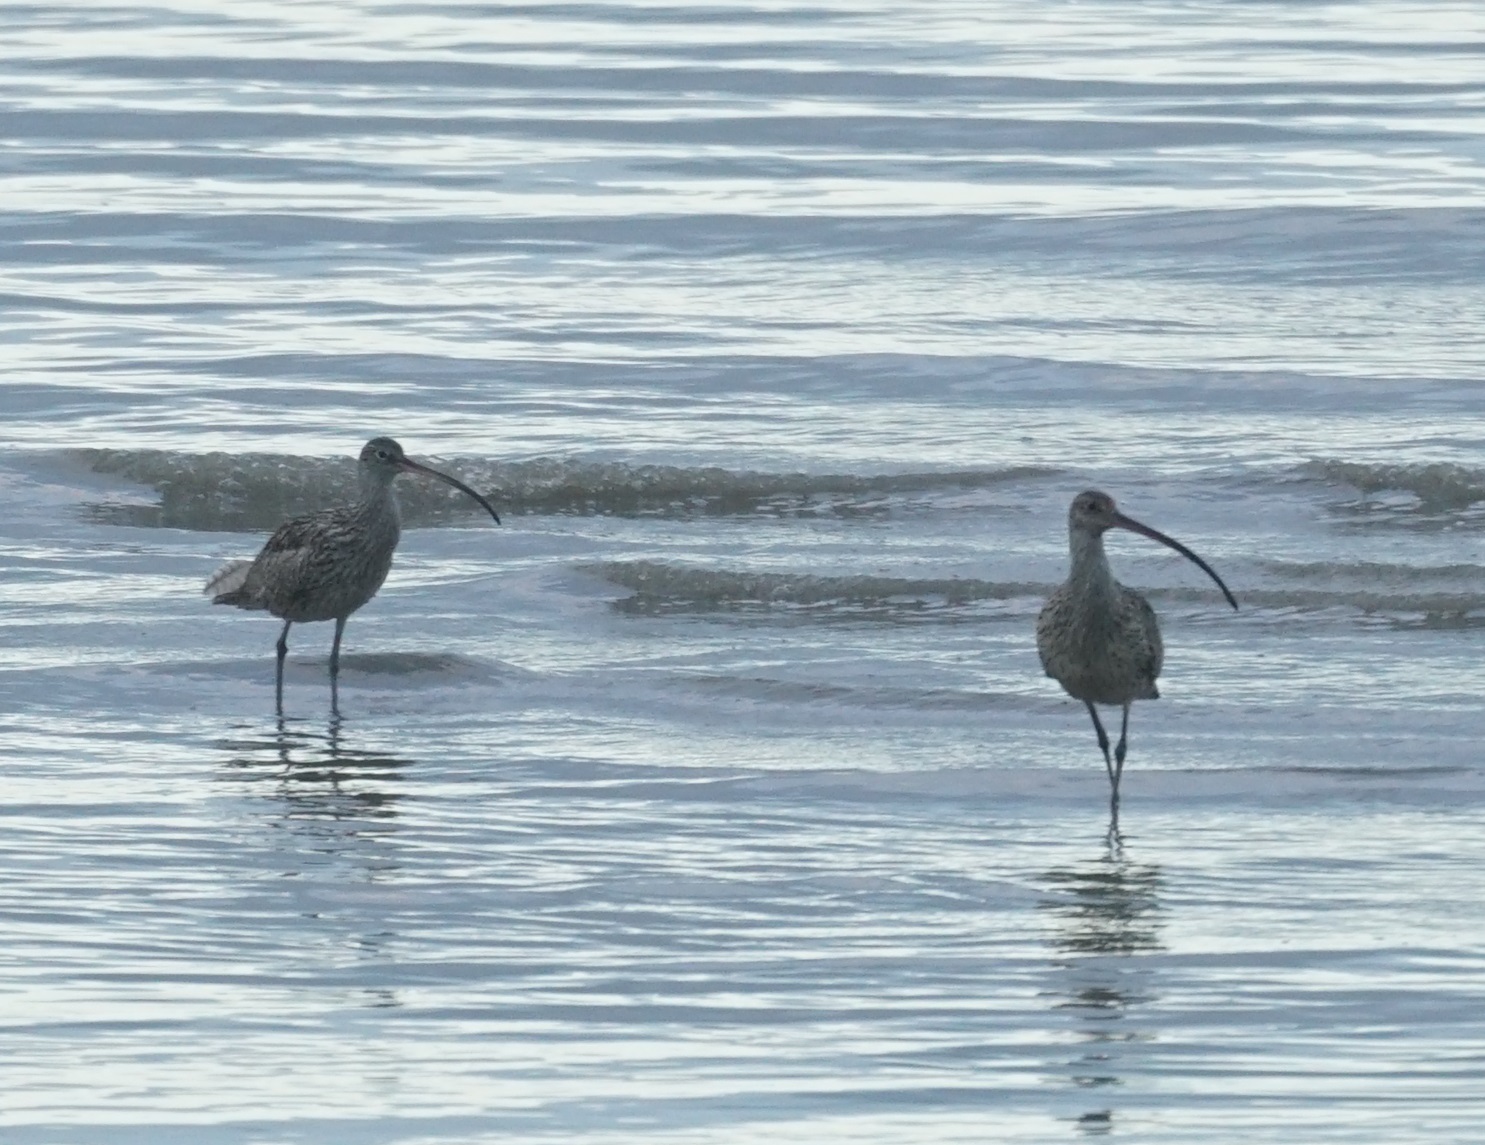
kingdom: Animalia
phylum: Chordata
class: Aves
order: Charadriiformes
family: Scolopacidae
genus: Numenius
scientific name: Numenius madagascariensis
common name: Far eastern curlew
